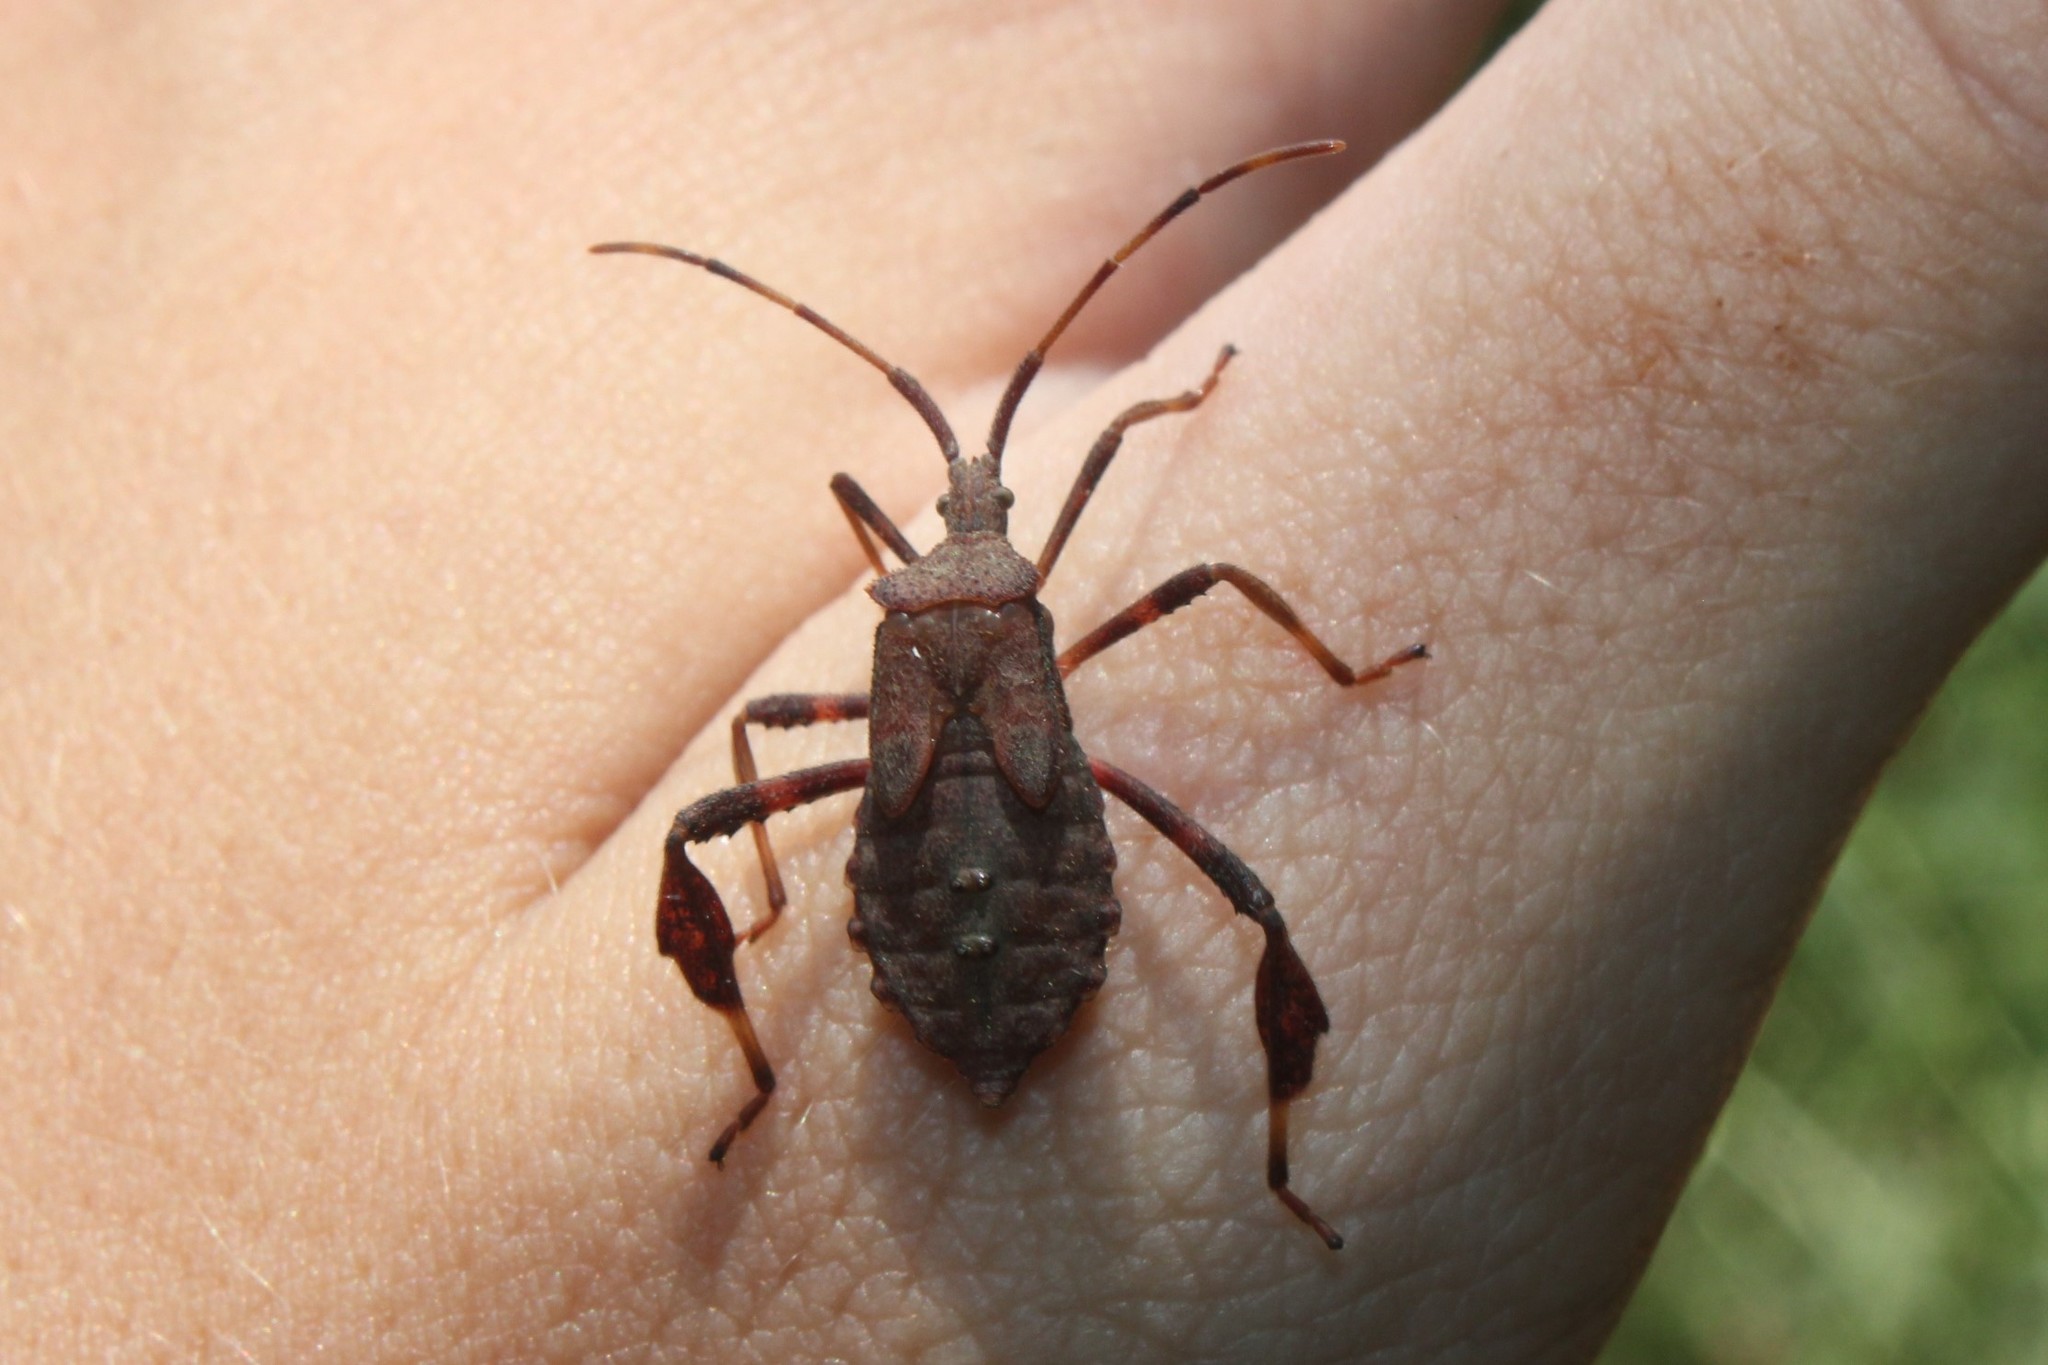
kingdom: Animalia
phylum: Arthropoda
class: Insecta
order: Hemiptera
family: Coreidae
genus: Acanthocephala
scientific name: Acanthocephala terminalis
